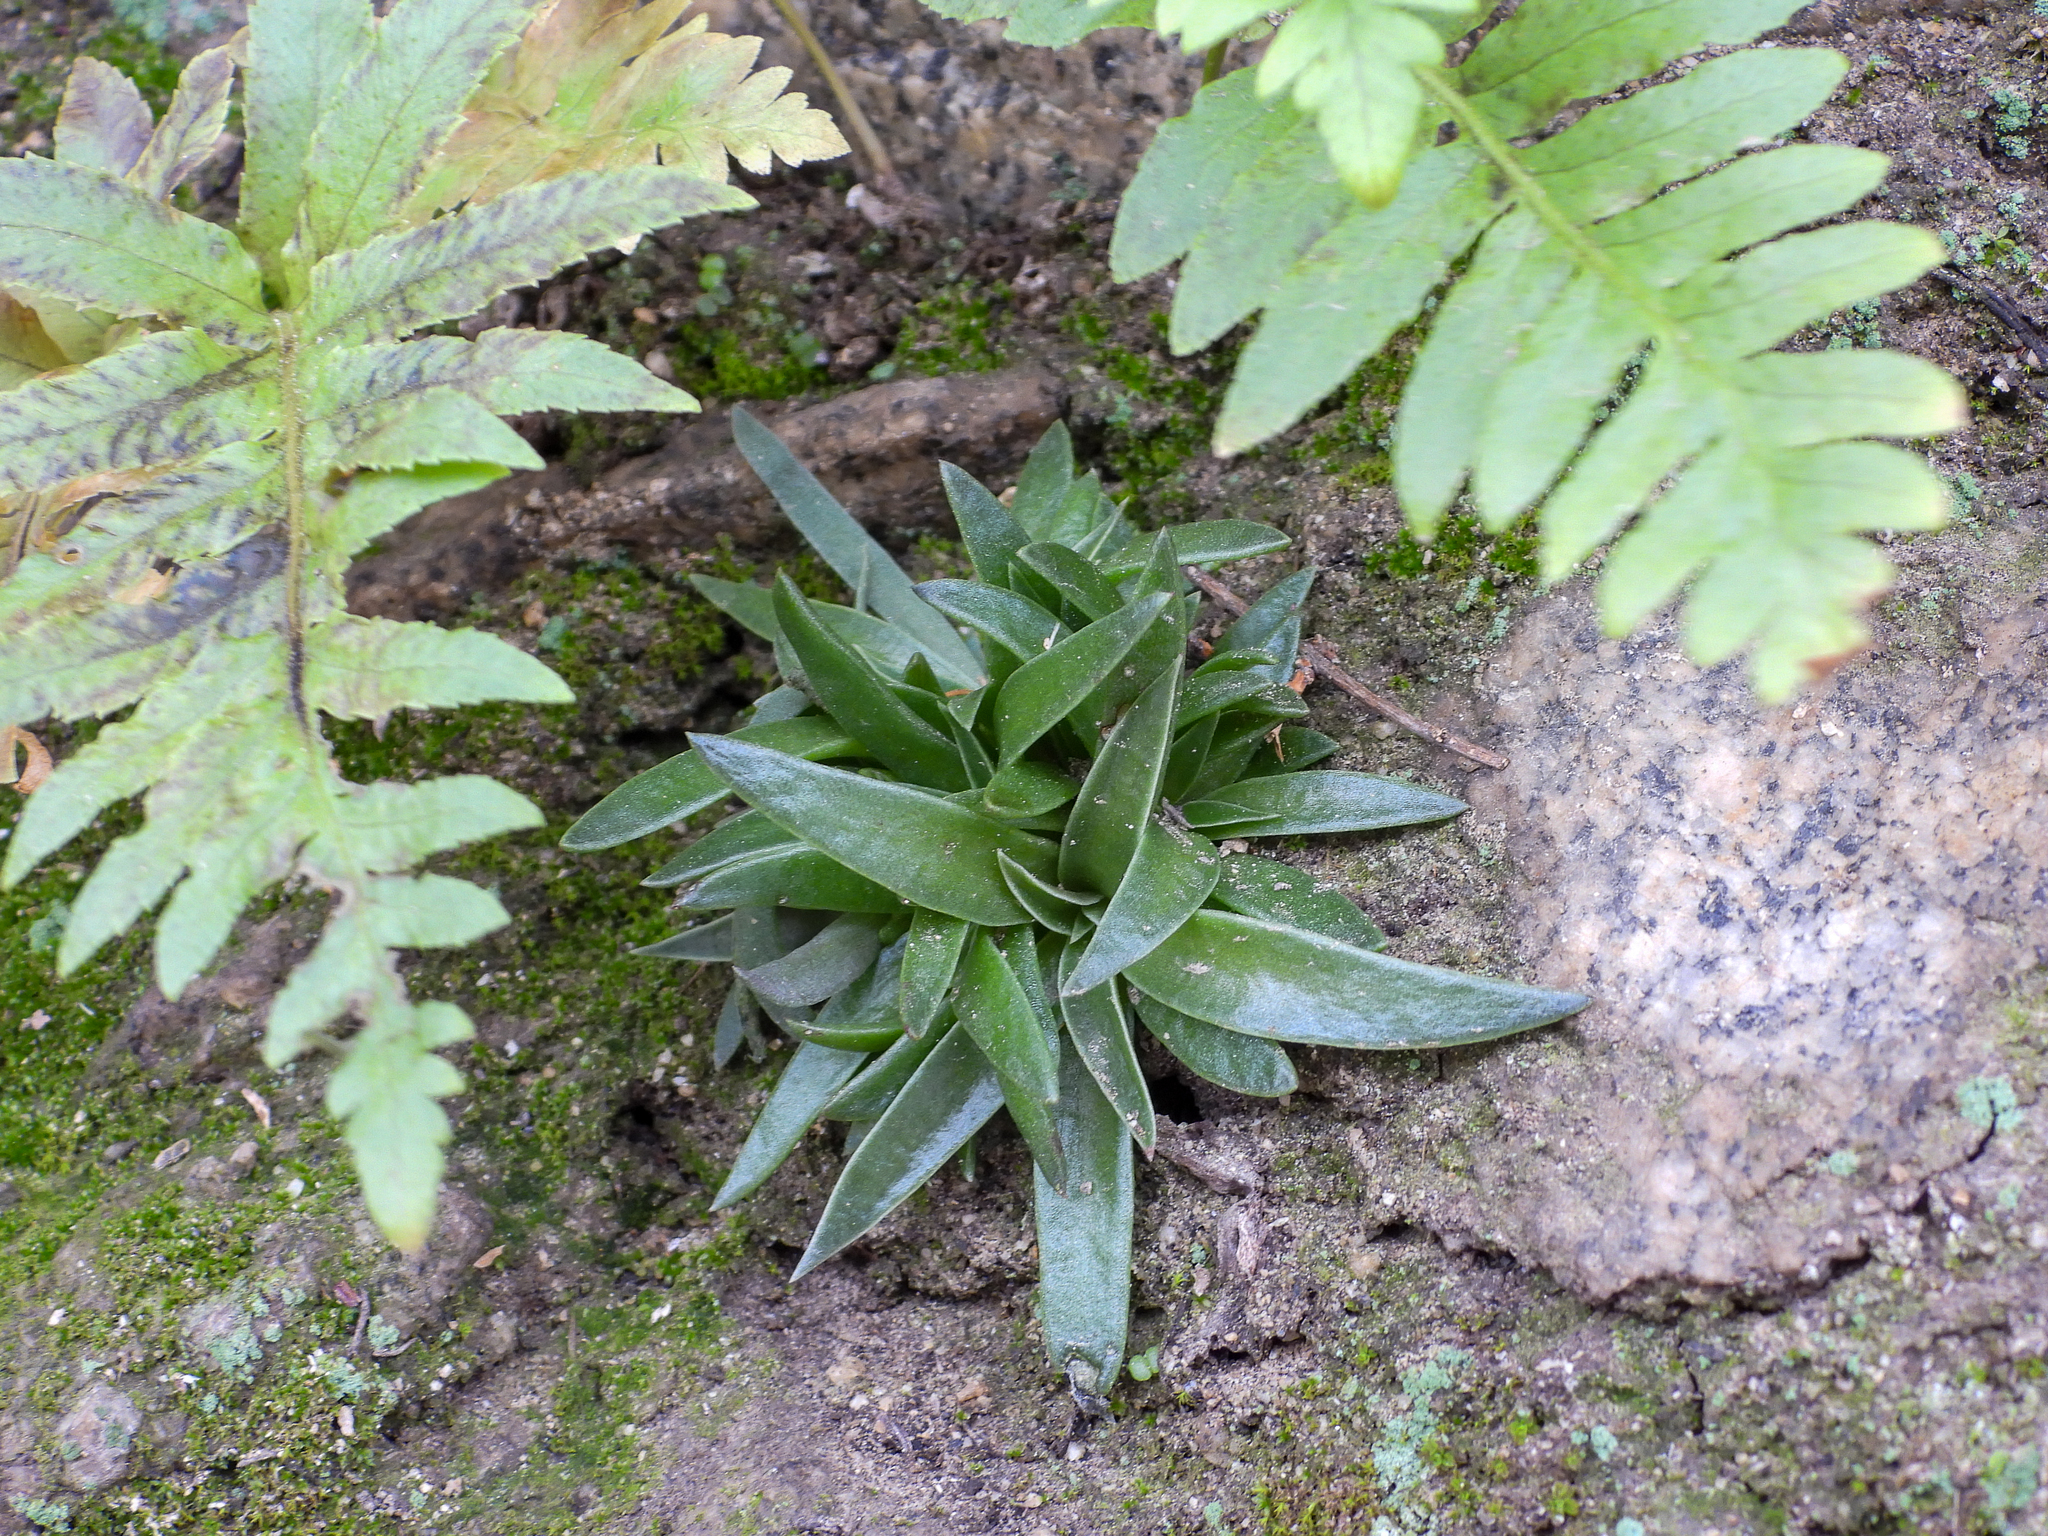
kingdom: Plantae
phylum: Tracheophyta
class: Magnoliopsida
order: Saxifragales
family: Crassulaceae
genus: Dudleya
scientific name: Dudleya lanceolata
